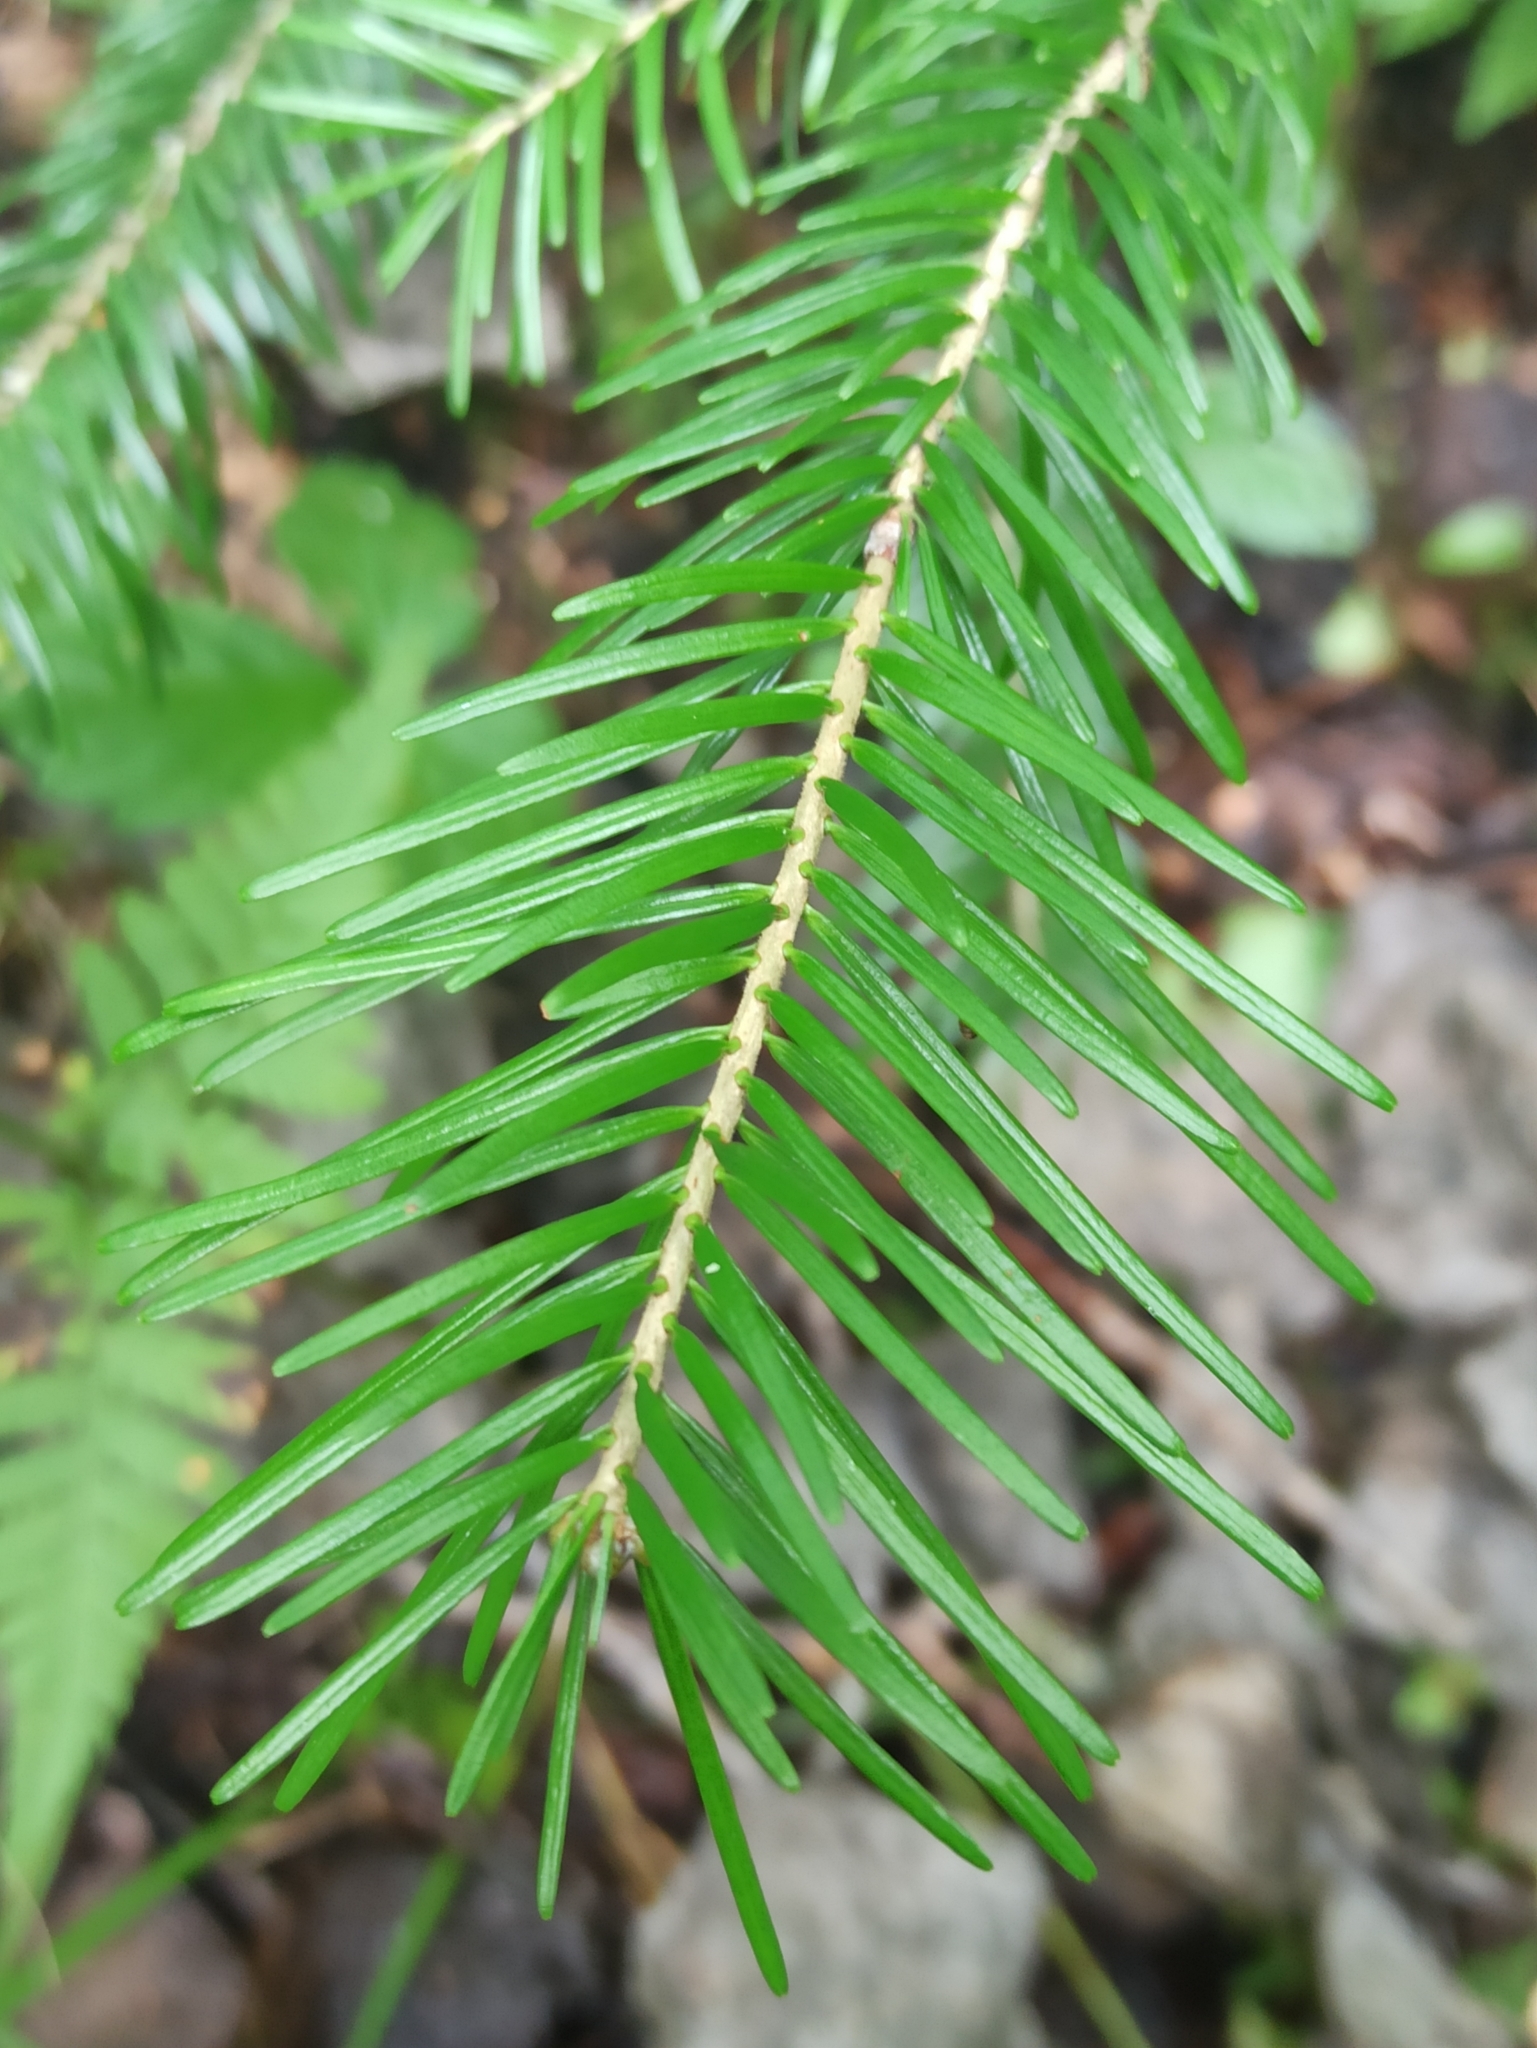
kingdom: Plantae
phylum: Tracheophyta
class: Pinopsida
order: Pinales
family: Pinaceae
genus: Abies
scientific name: Abies sibirica
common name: Siberian fir
